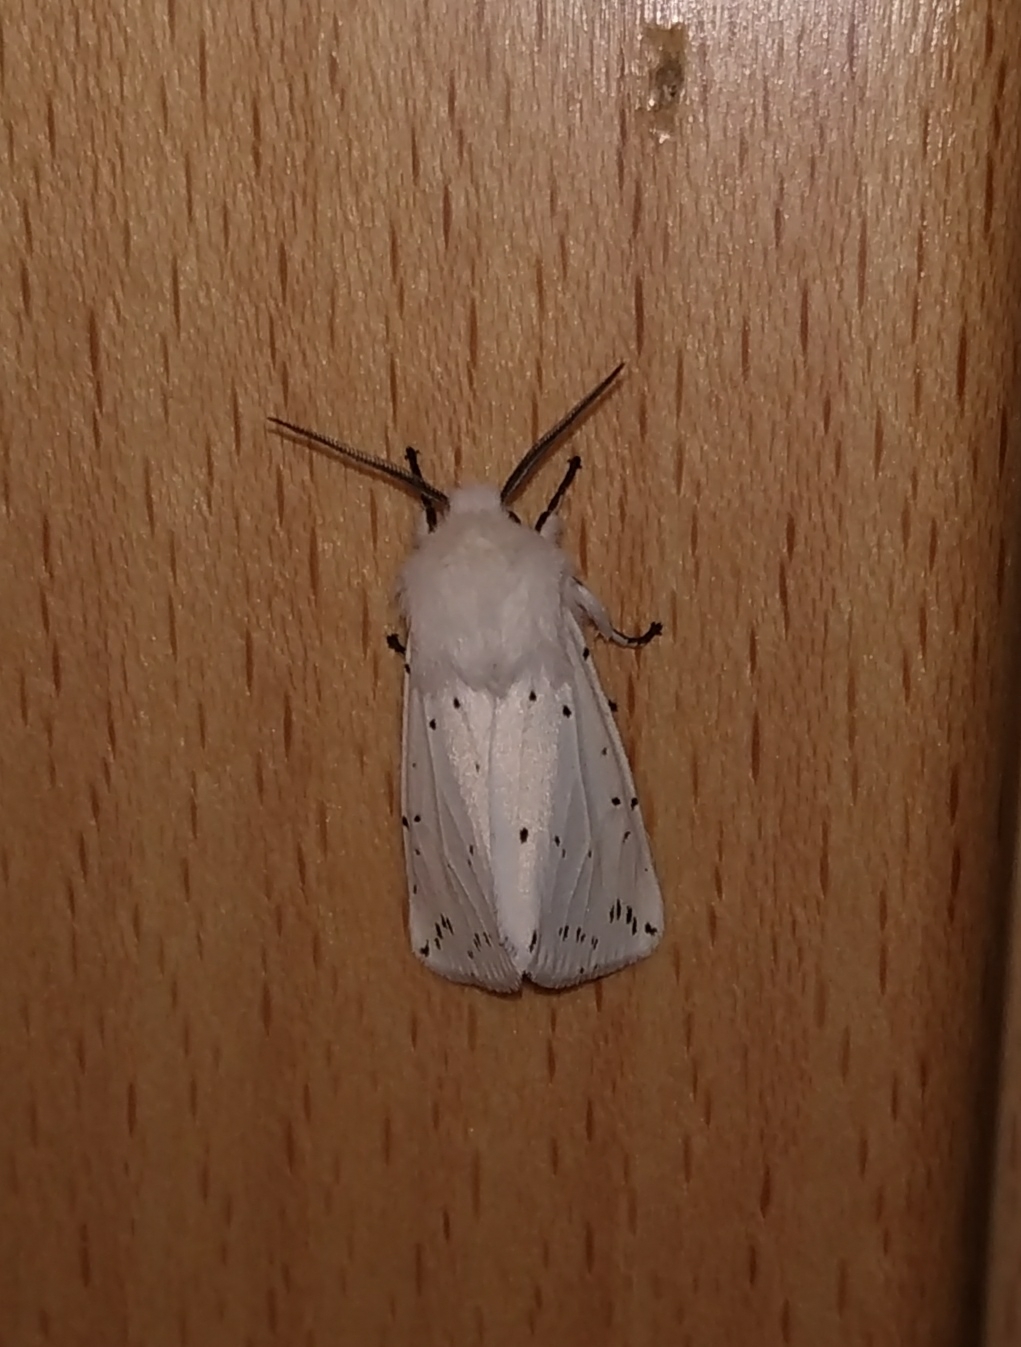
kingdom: Animalia
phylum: Arthropoda
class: Insecta
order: Lepidoptera
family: Erebidae
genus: Spilosoma
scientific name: Spilosoma lubricipeda
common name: White ermine
